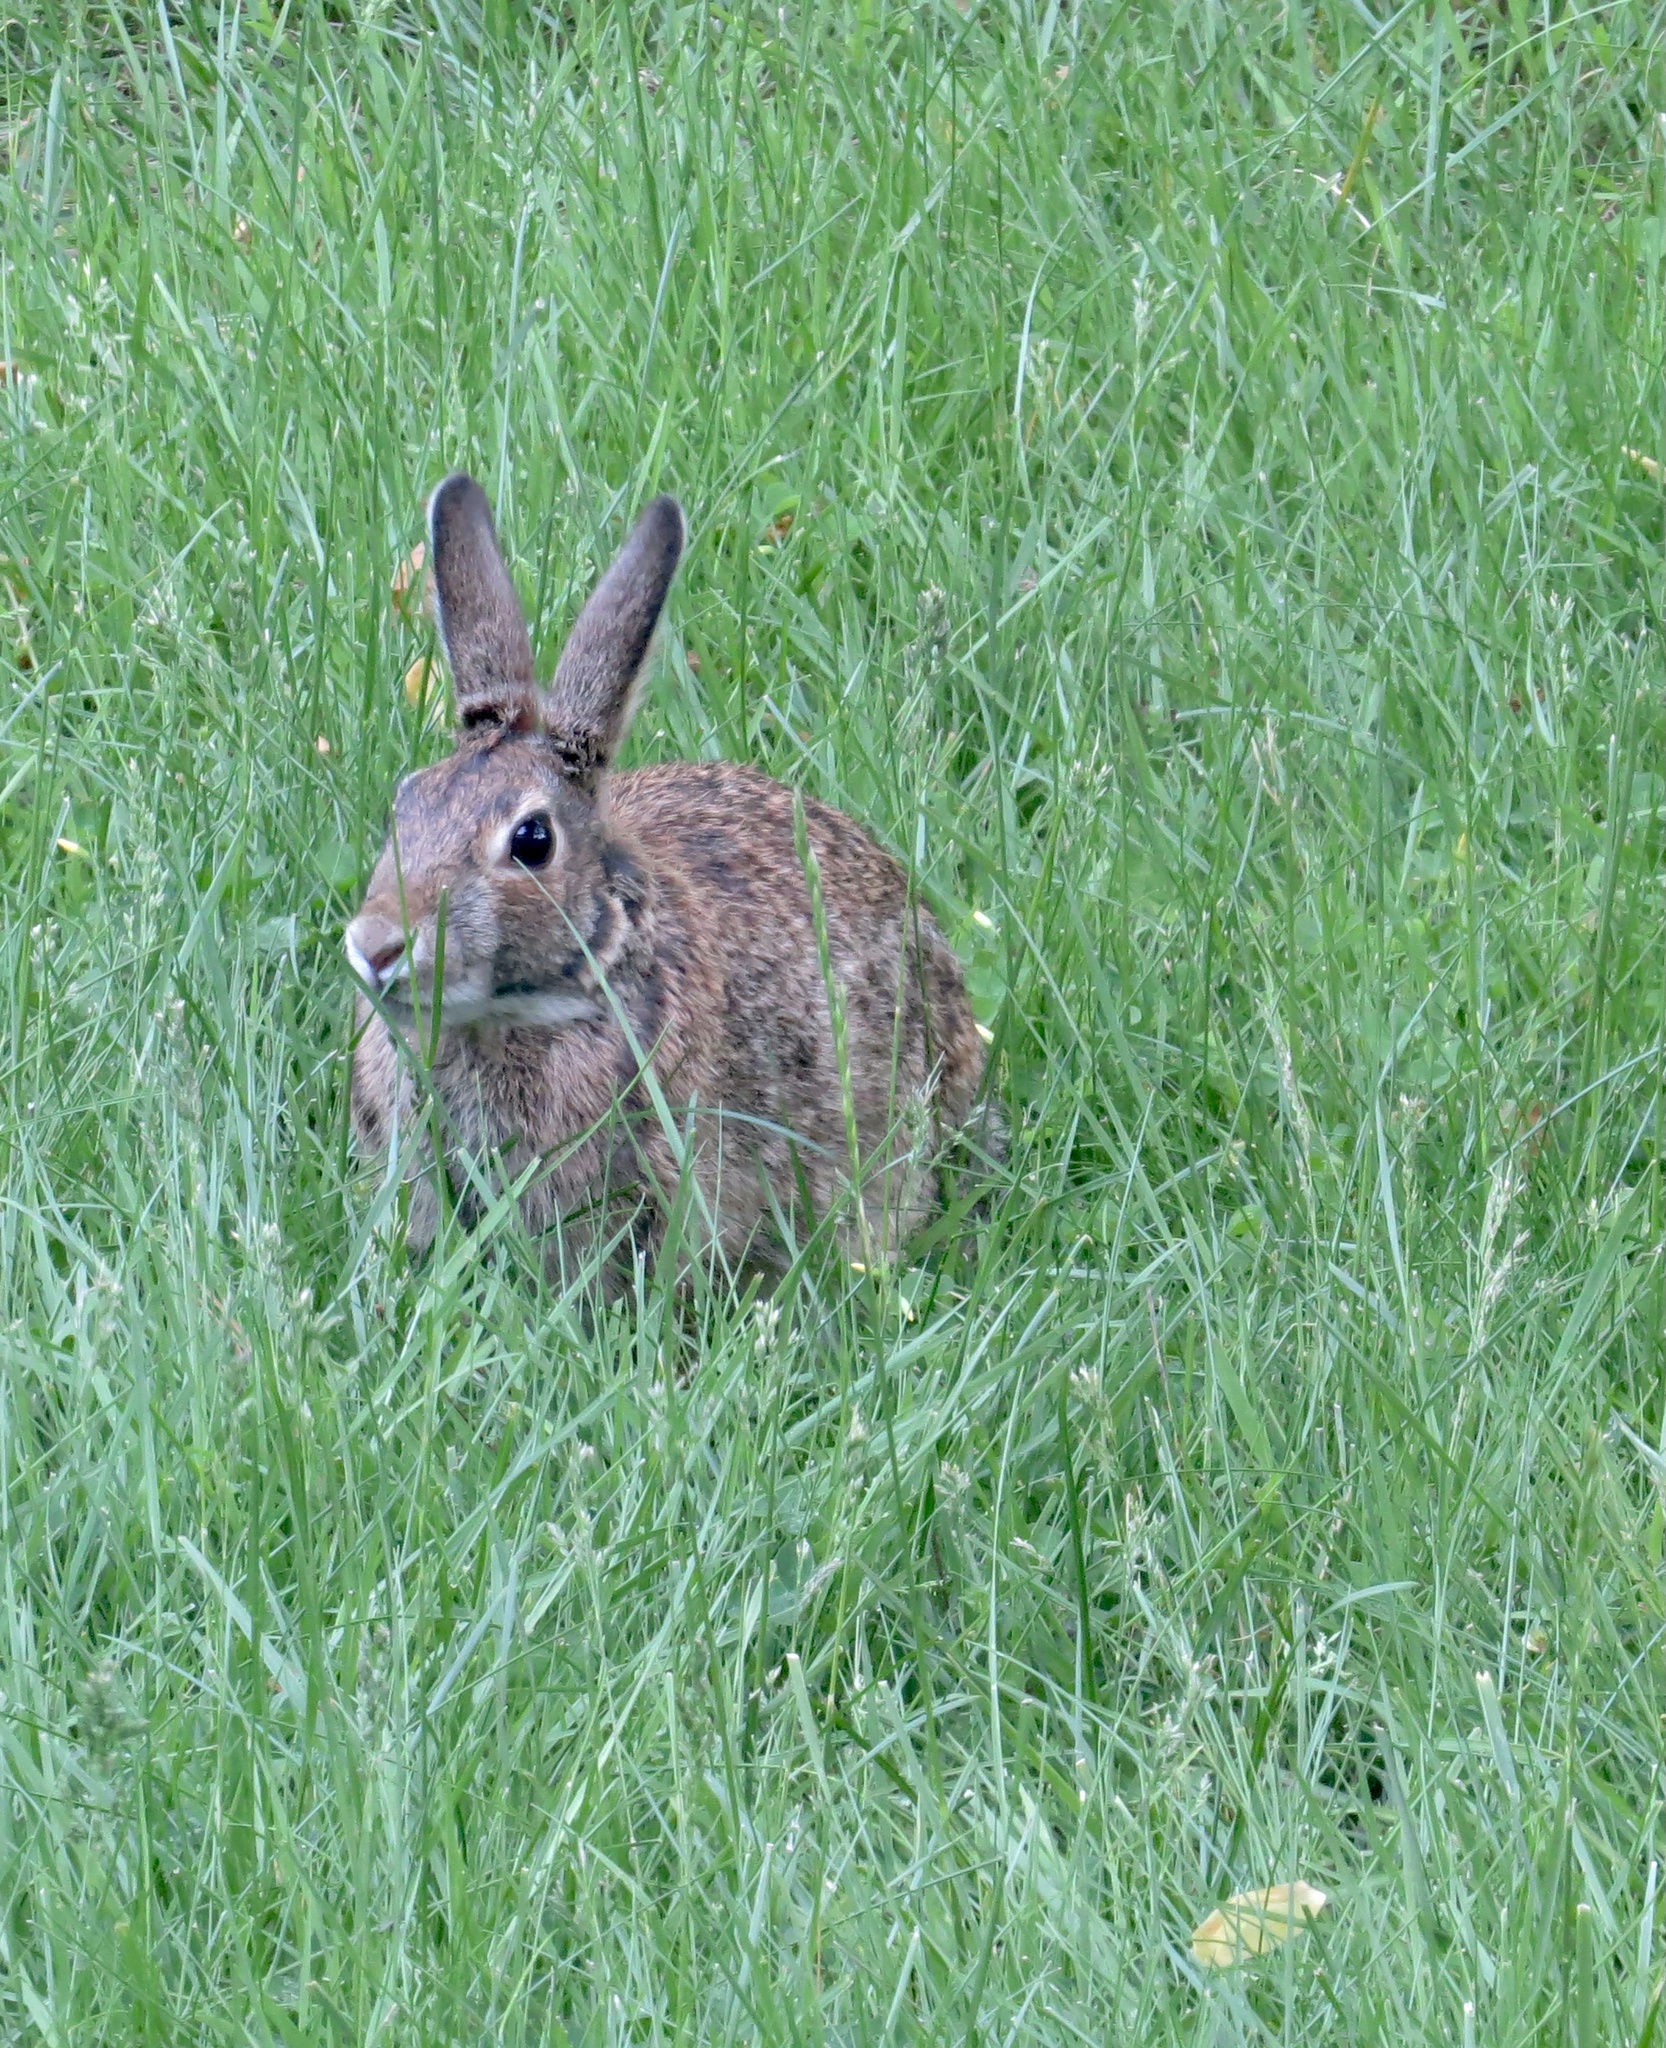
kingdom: Animalia
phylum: Chordata
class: Mammalia
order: Lagomorpha
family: Leporidae
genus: Sylvilagus
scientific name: Sylvilagus floridanus
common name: Eastern cottontail
